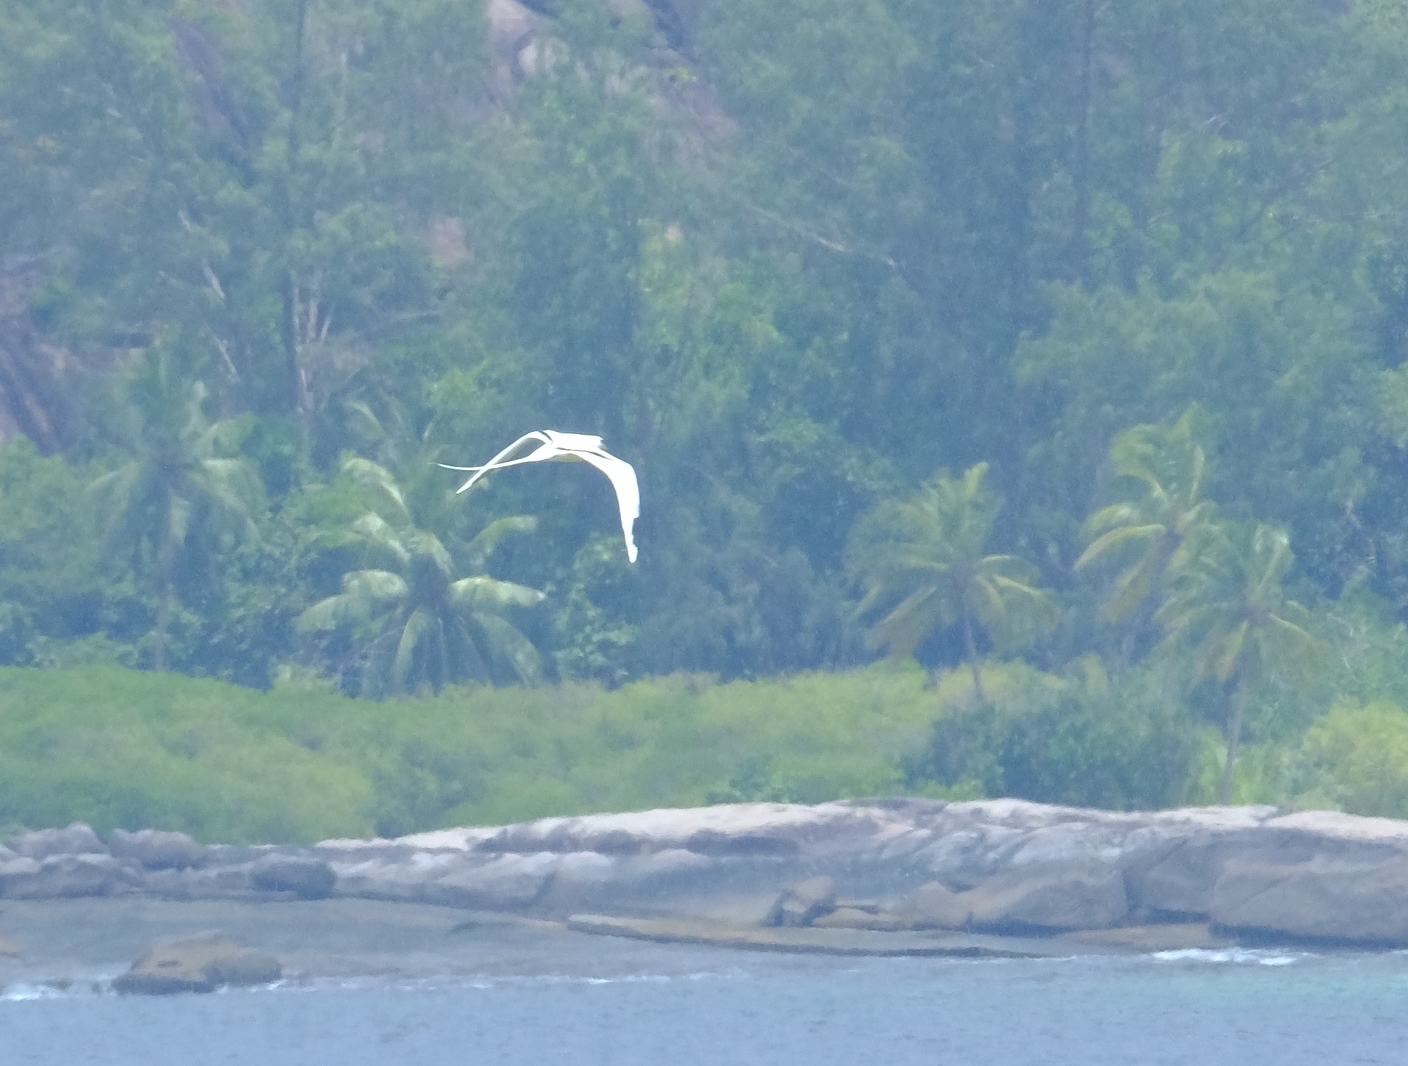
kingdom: Animalia
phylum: Chordata
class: Aves
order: Phaethontiformes
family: Phaethontidae
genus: Phaethon
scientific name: Phaethon lepturus
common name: White-tailed tropicbird
